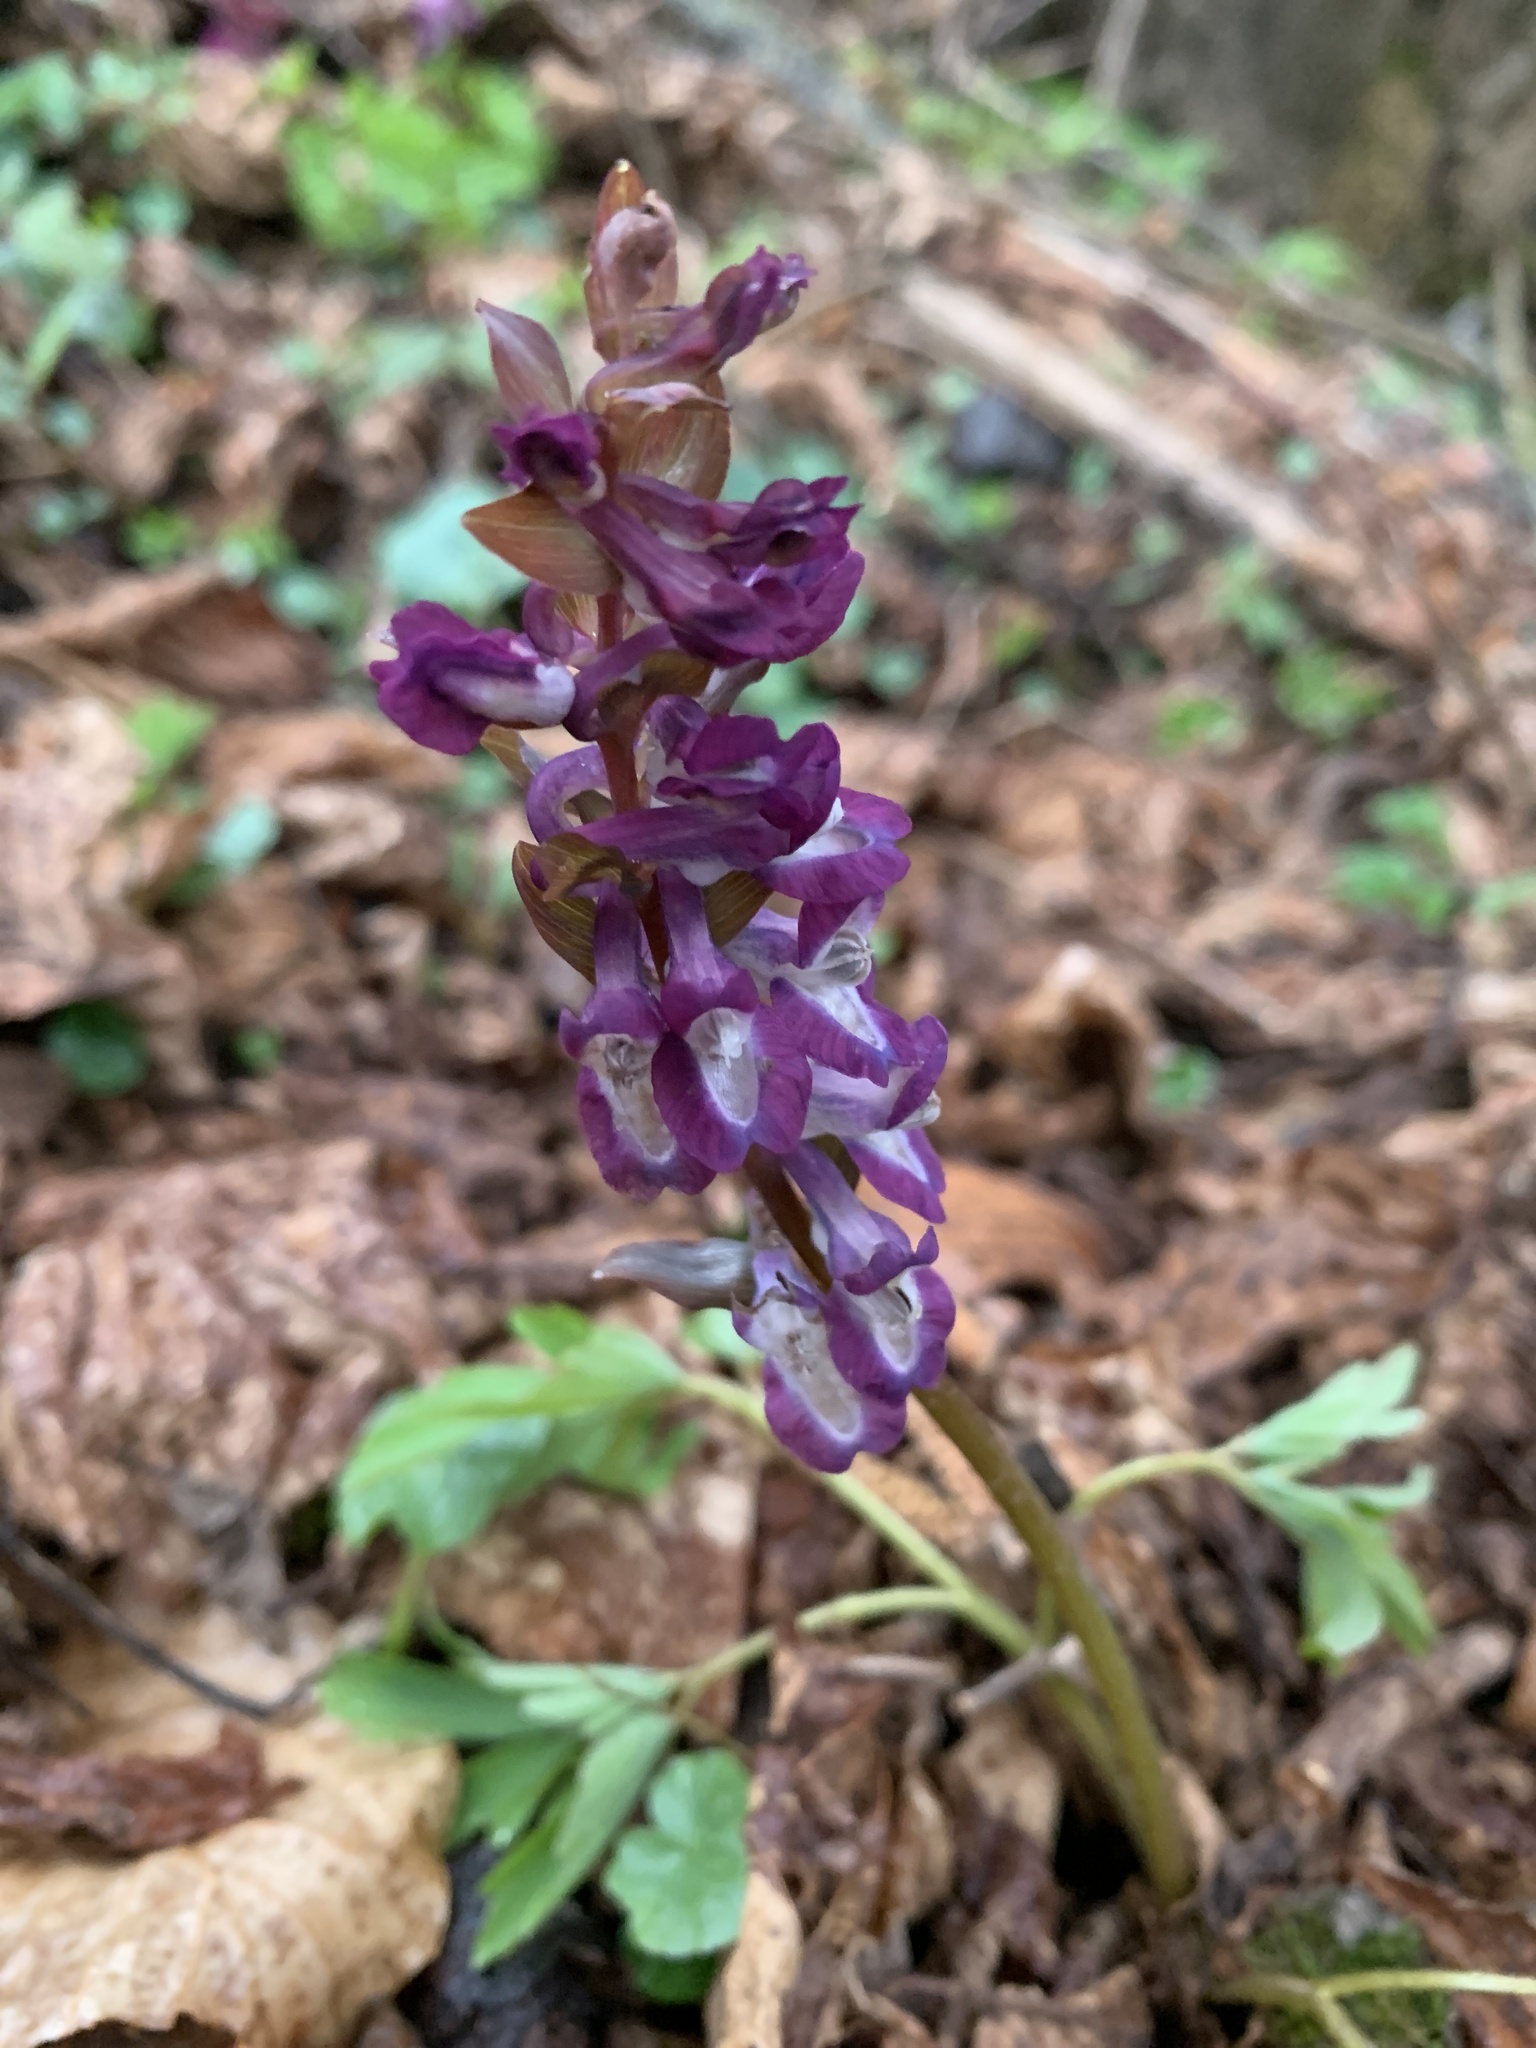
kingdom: Plantae
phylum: Tracheophyta
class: Magnoliopsida
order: Ranunculales
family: Papaveraceae
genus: Corydalis
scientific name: Corydalis cava
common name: Hollowroot
